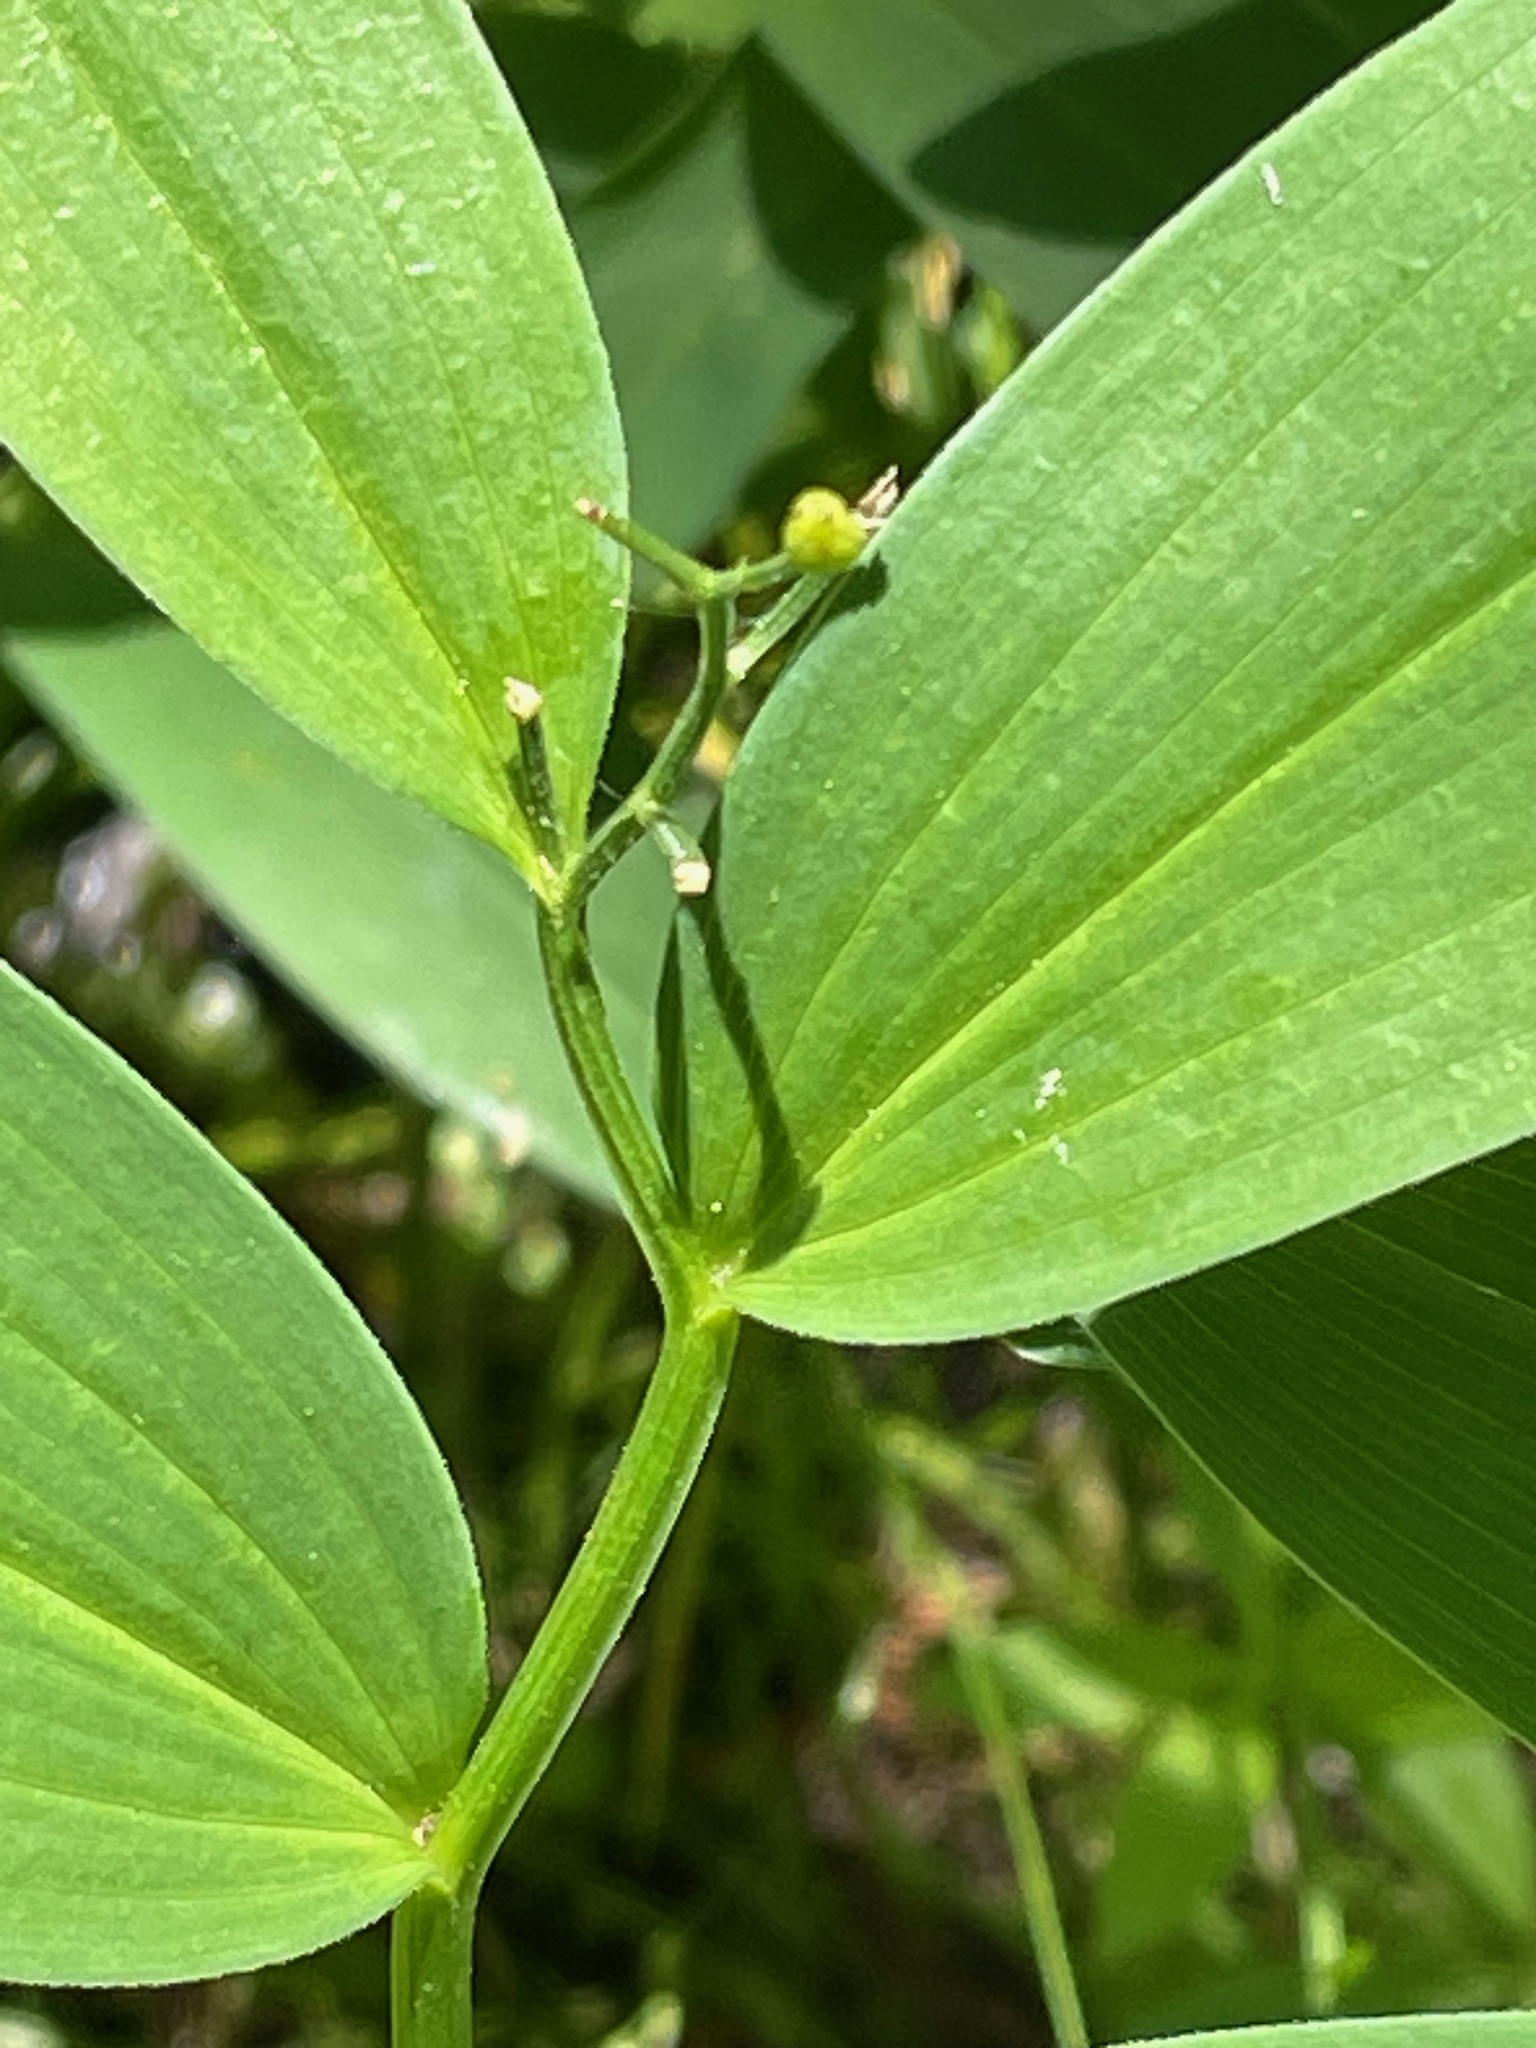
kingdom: Plantae
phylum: Tracheophyta
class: Liliopsida
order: Asparagales
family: Asparagaceae
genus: Maianthemum
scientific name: Maianthemum stellatum
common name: Little false solomon's seal
